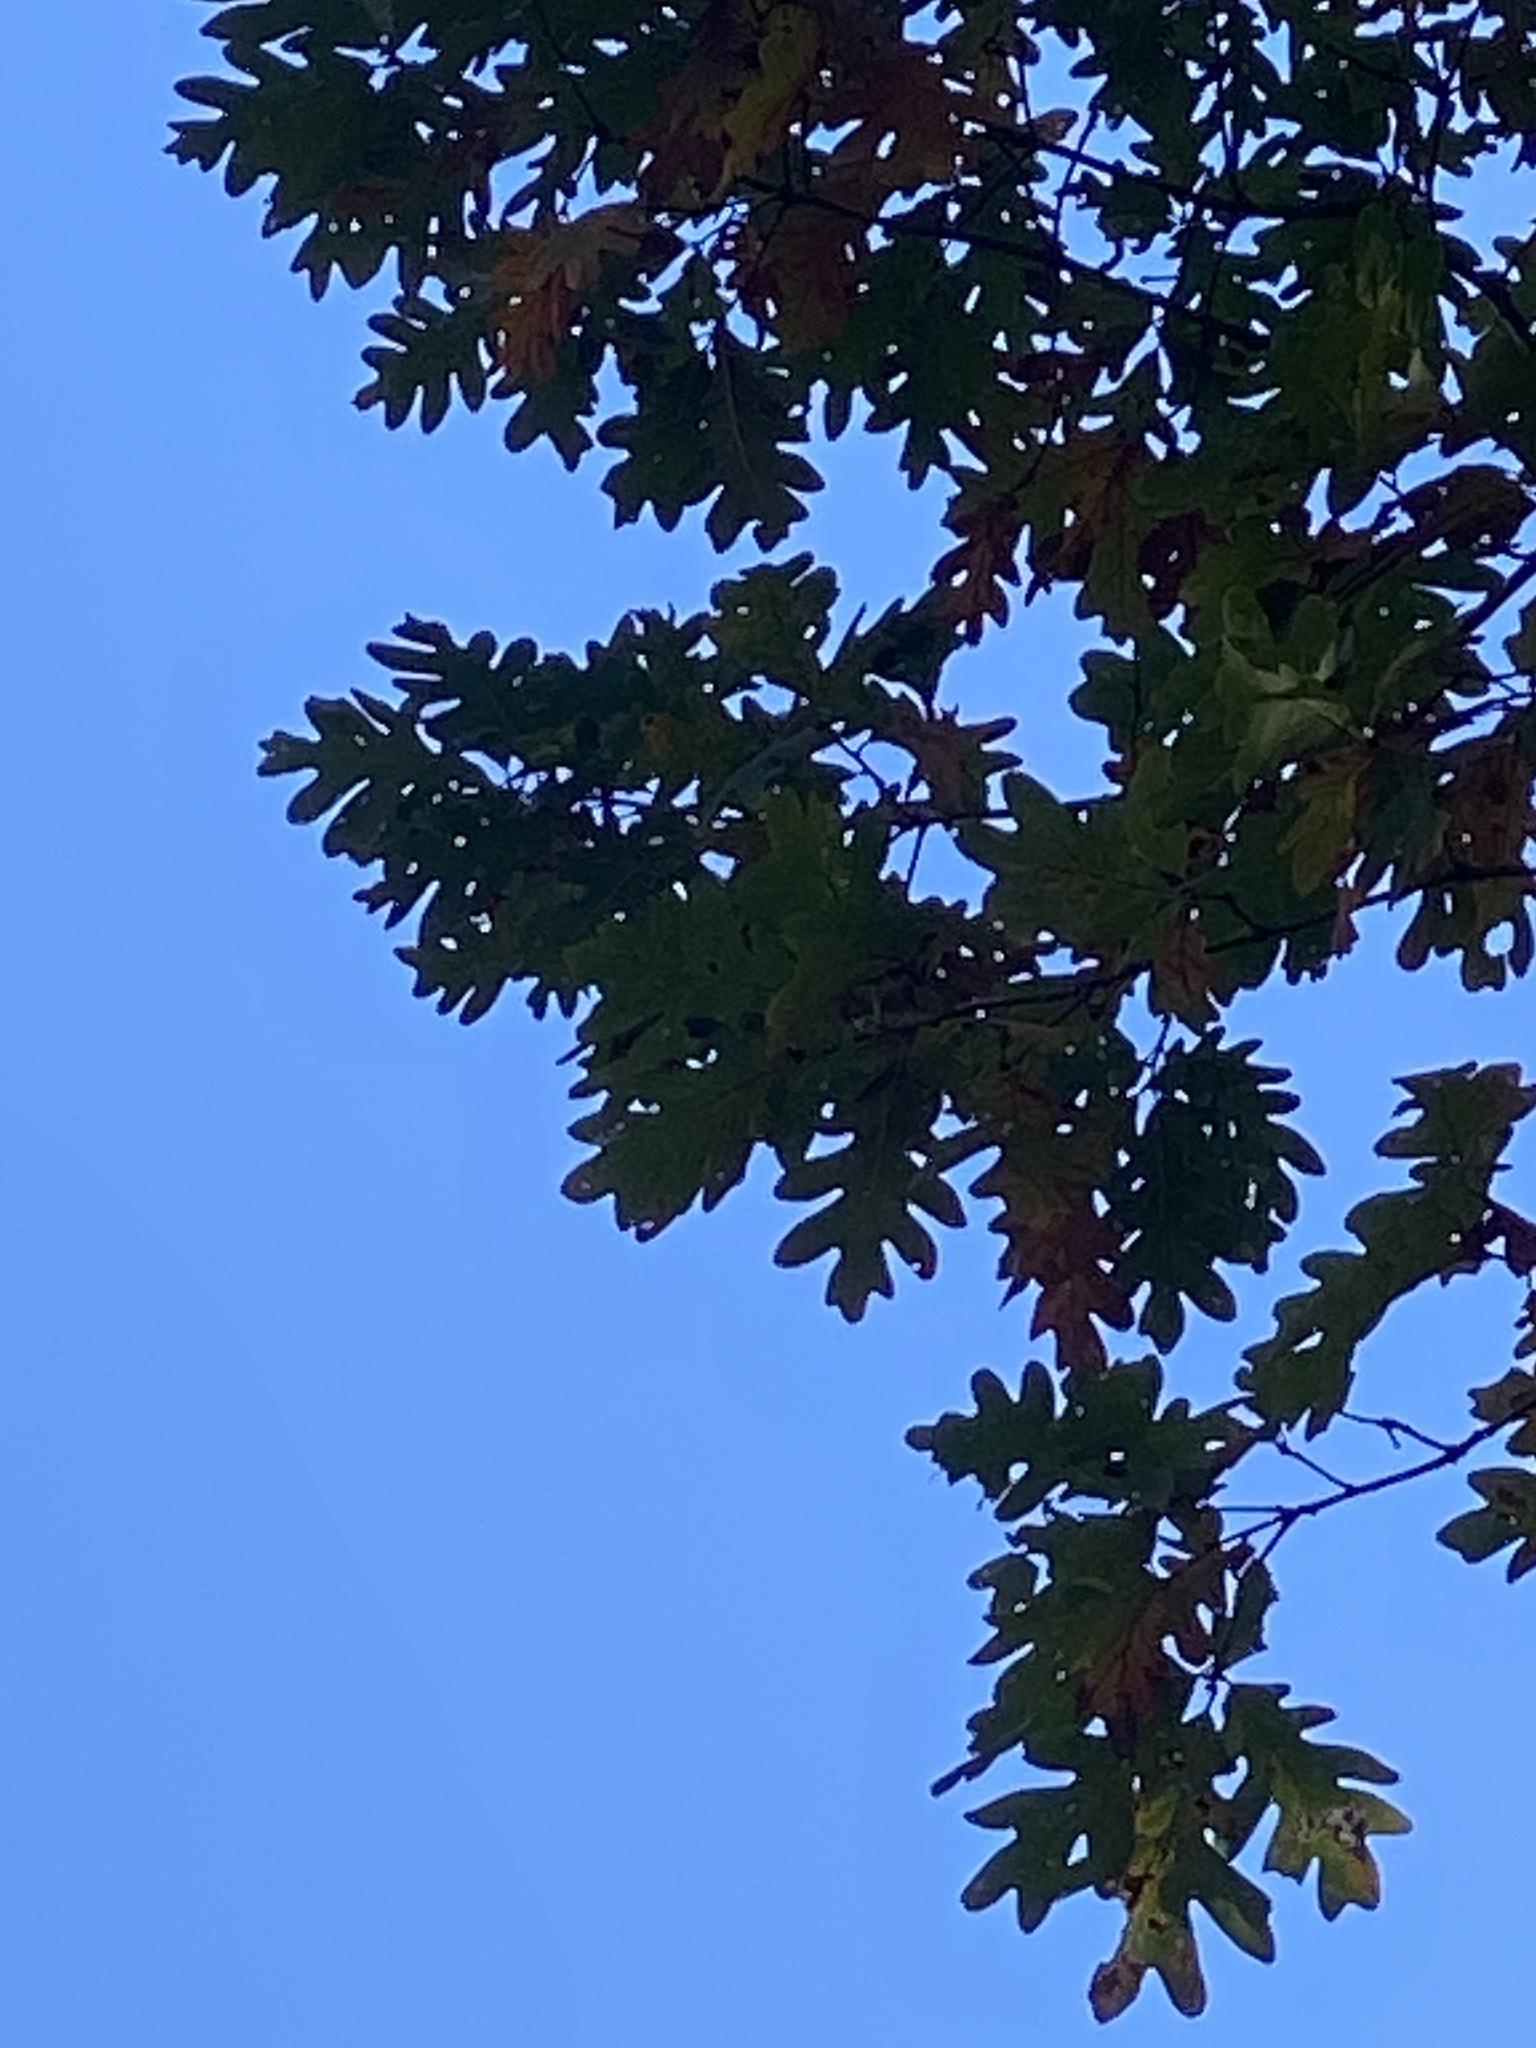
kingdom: Plantae
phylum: Tracheophyta
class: Magnoliopsida
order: Fagales
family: Fagaceae
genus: Quercus
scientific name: Quercus alba
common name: White oak
